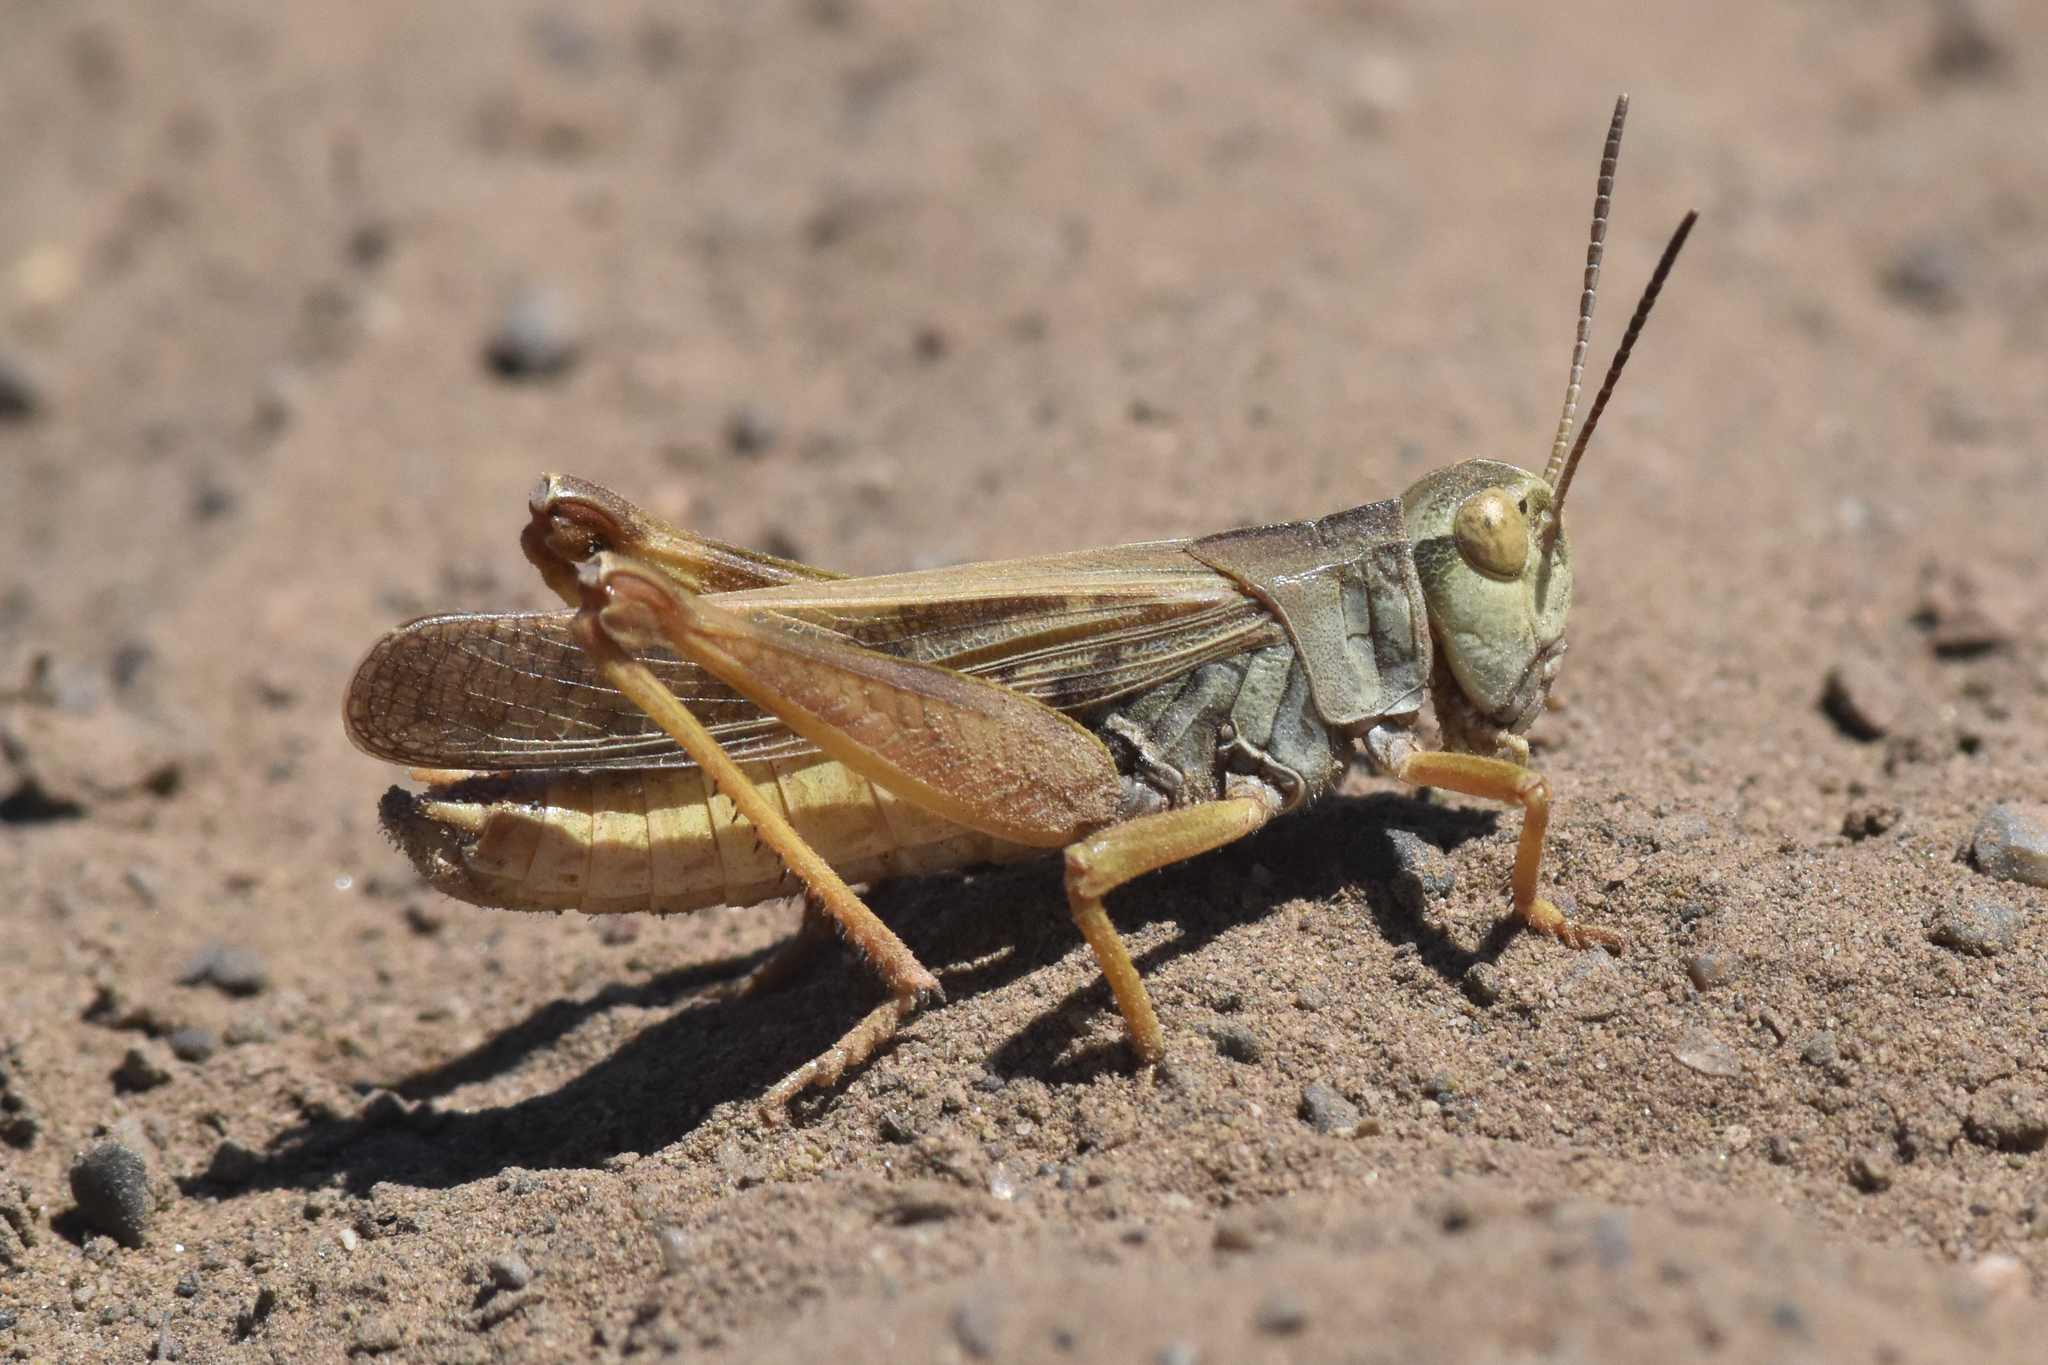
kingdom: Animalia
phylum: Arthropoda
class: Insecta
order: Orthoptera
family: Acrididae
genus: Camnula
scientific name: Camnula pellucida
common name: Clear-winged grasshopper
